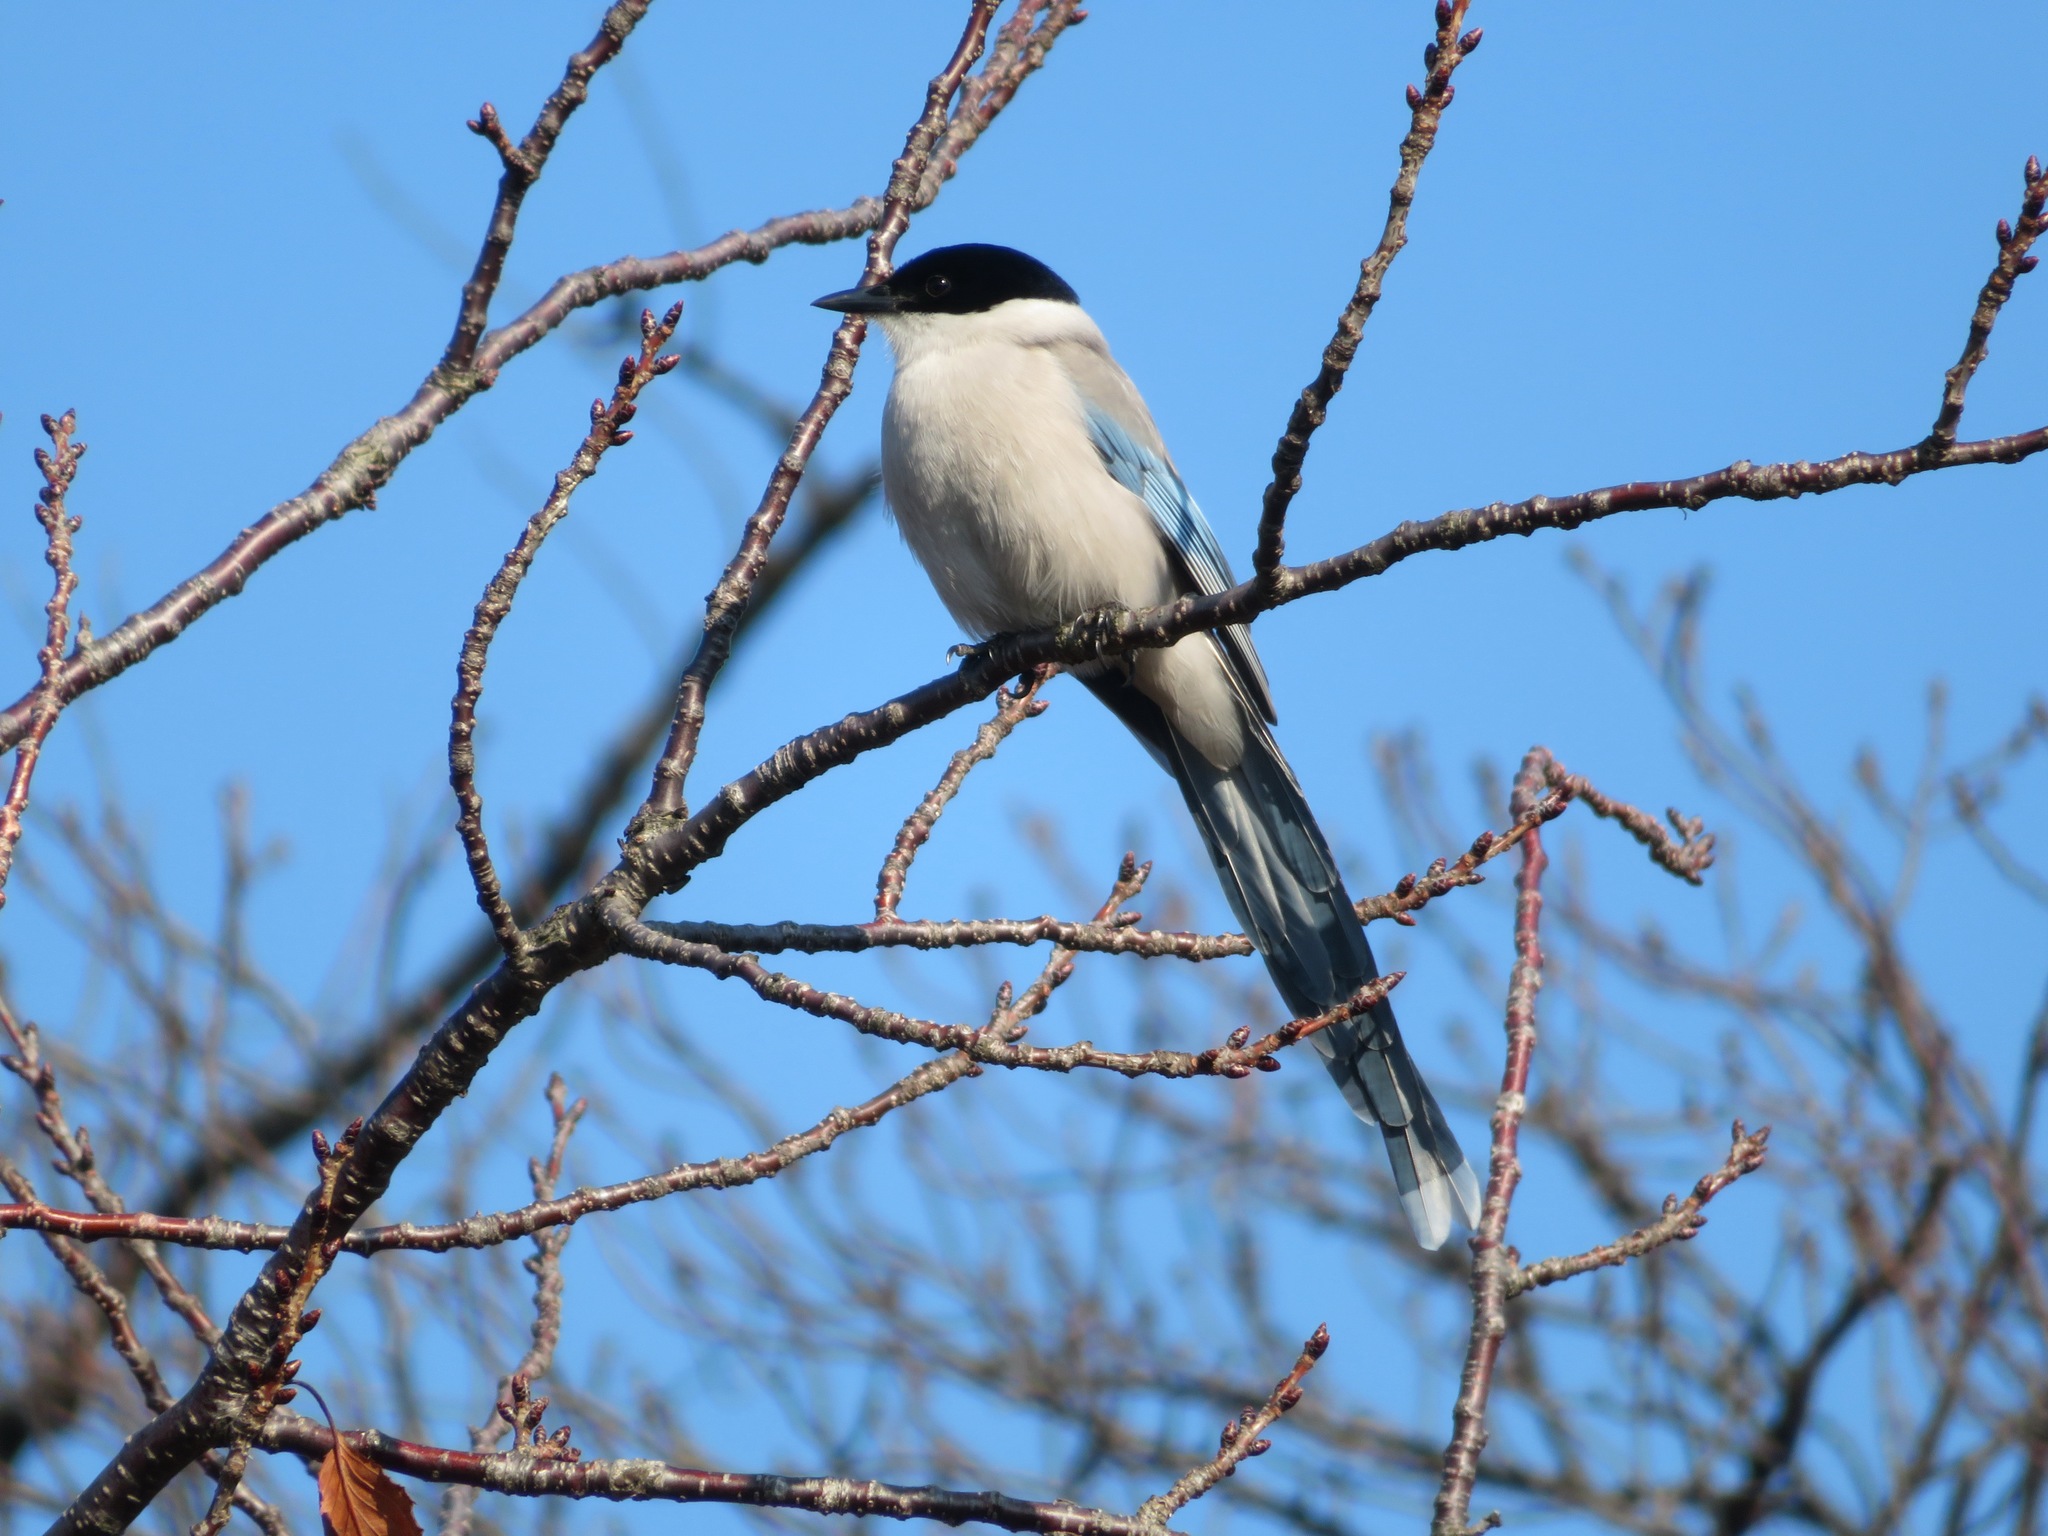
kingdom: Animalia
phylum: Chordata
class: Aves
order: Passeriformes
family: Corvidae
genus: Cyanopica
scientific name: Cyanopica cyanus
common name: Azure-winged magpie
